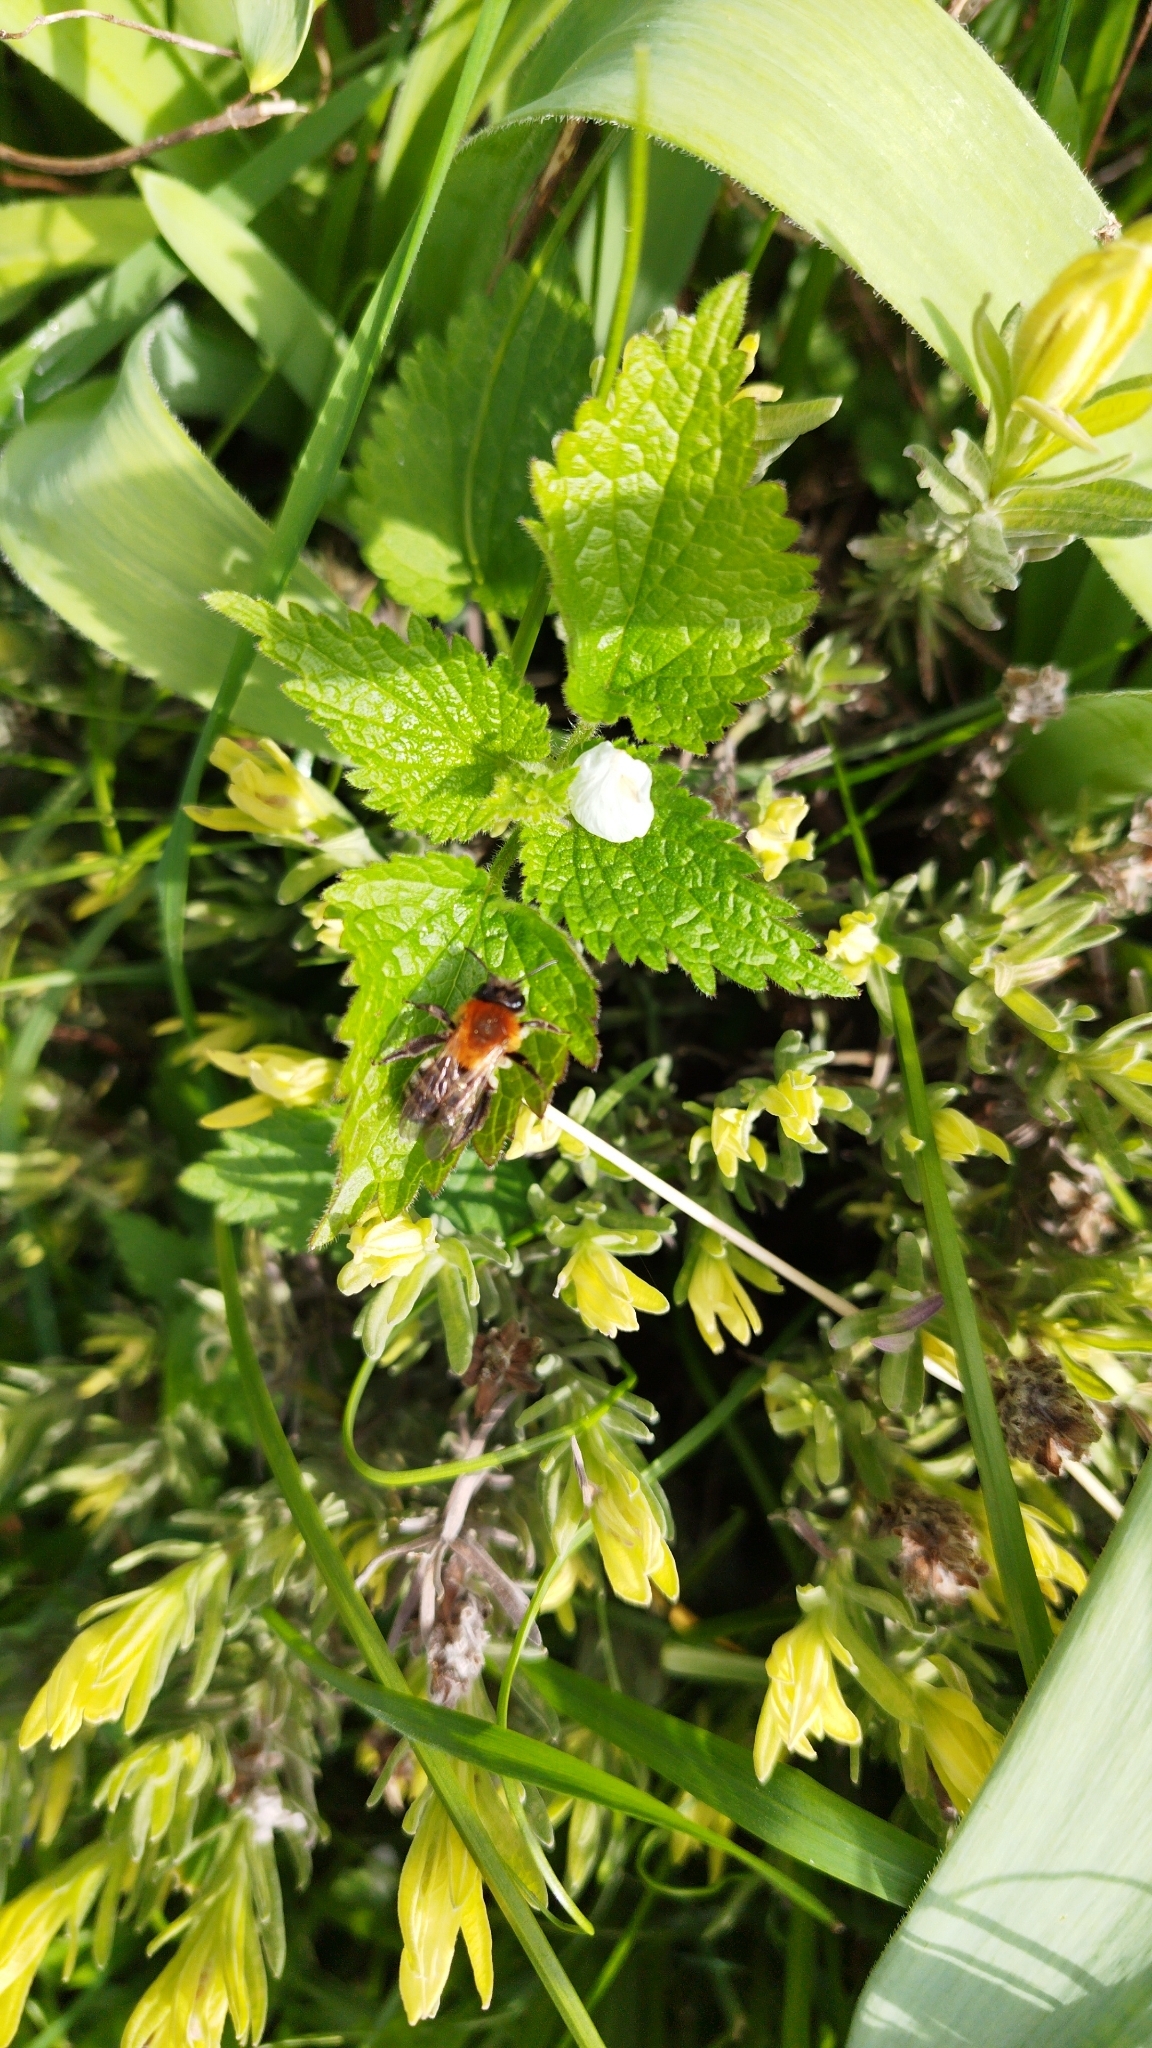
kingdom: Animalia
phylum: Arthropoda
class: Insecta
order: Hymenoptera
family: Andrenidae
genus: Andrena
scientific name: Andrena nitida
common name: Grey-patched mining bee
